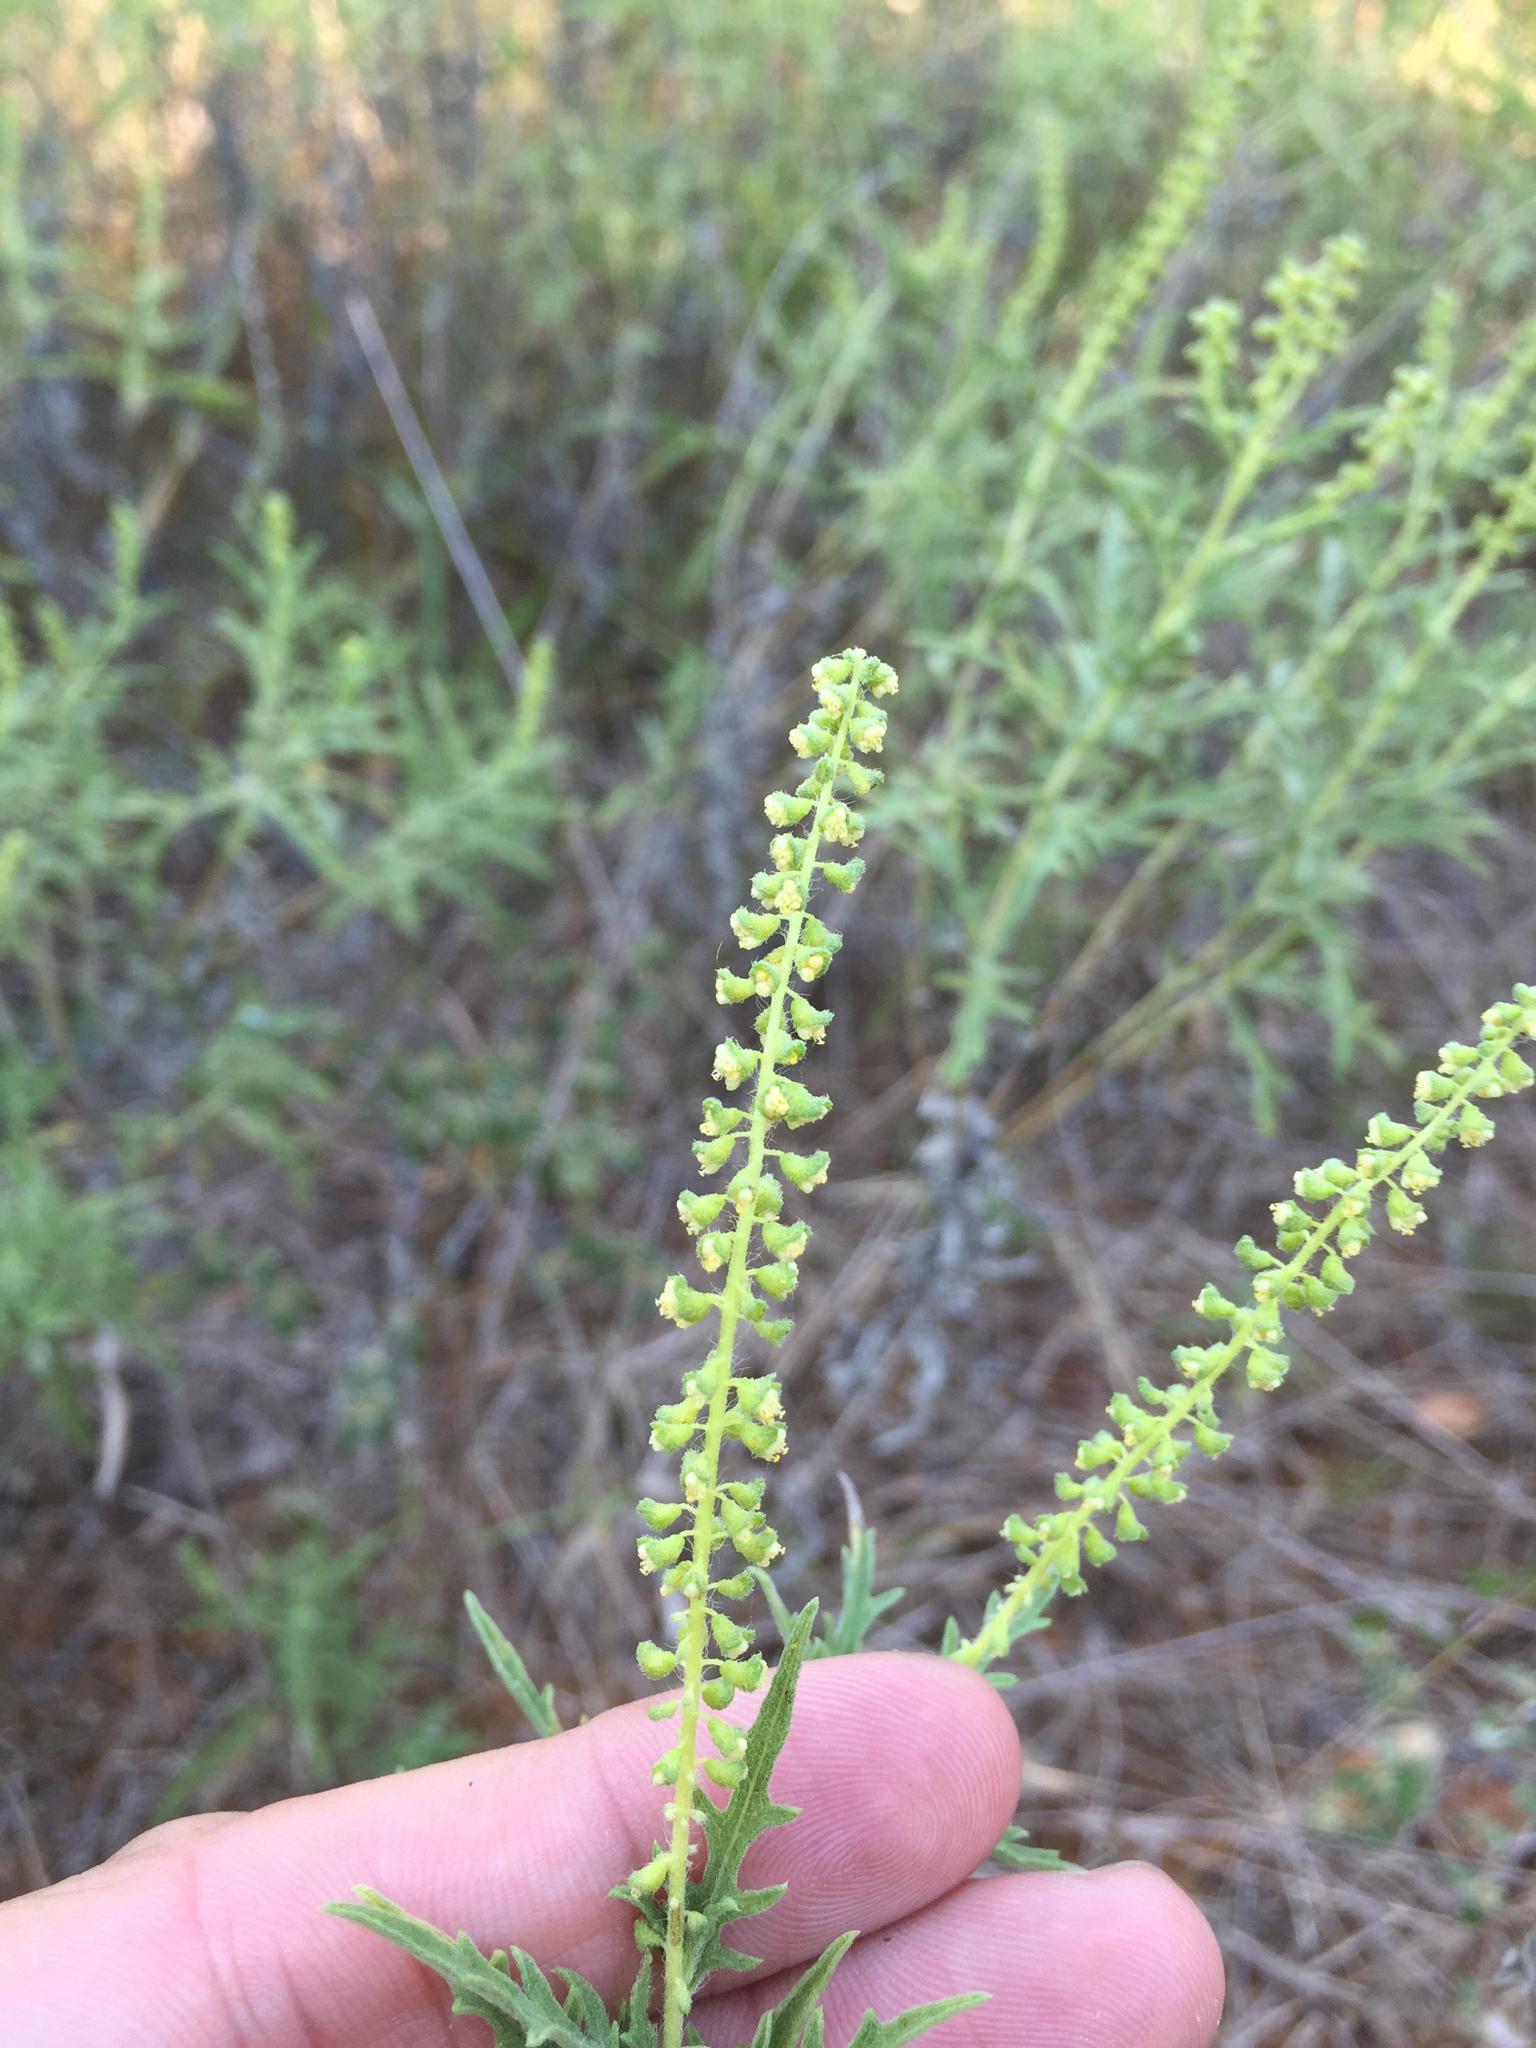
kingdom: Plantae
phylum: Tracheophyta
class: Magnoliopsida
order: Asterales
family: Asteraceae
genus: Ambrosia
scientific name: Ambrosia psilostachya
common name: Perennial ragweed
